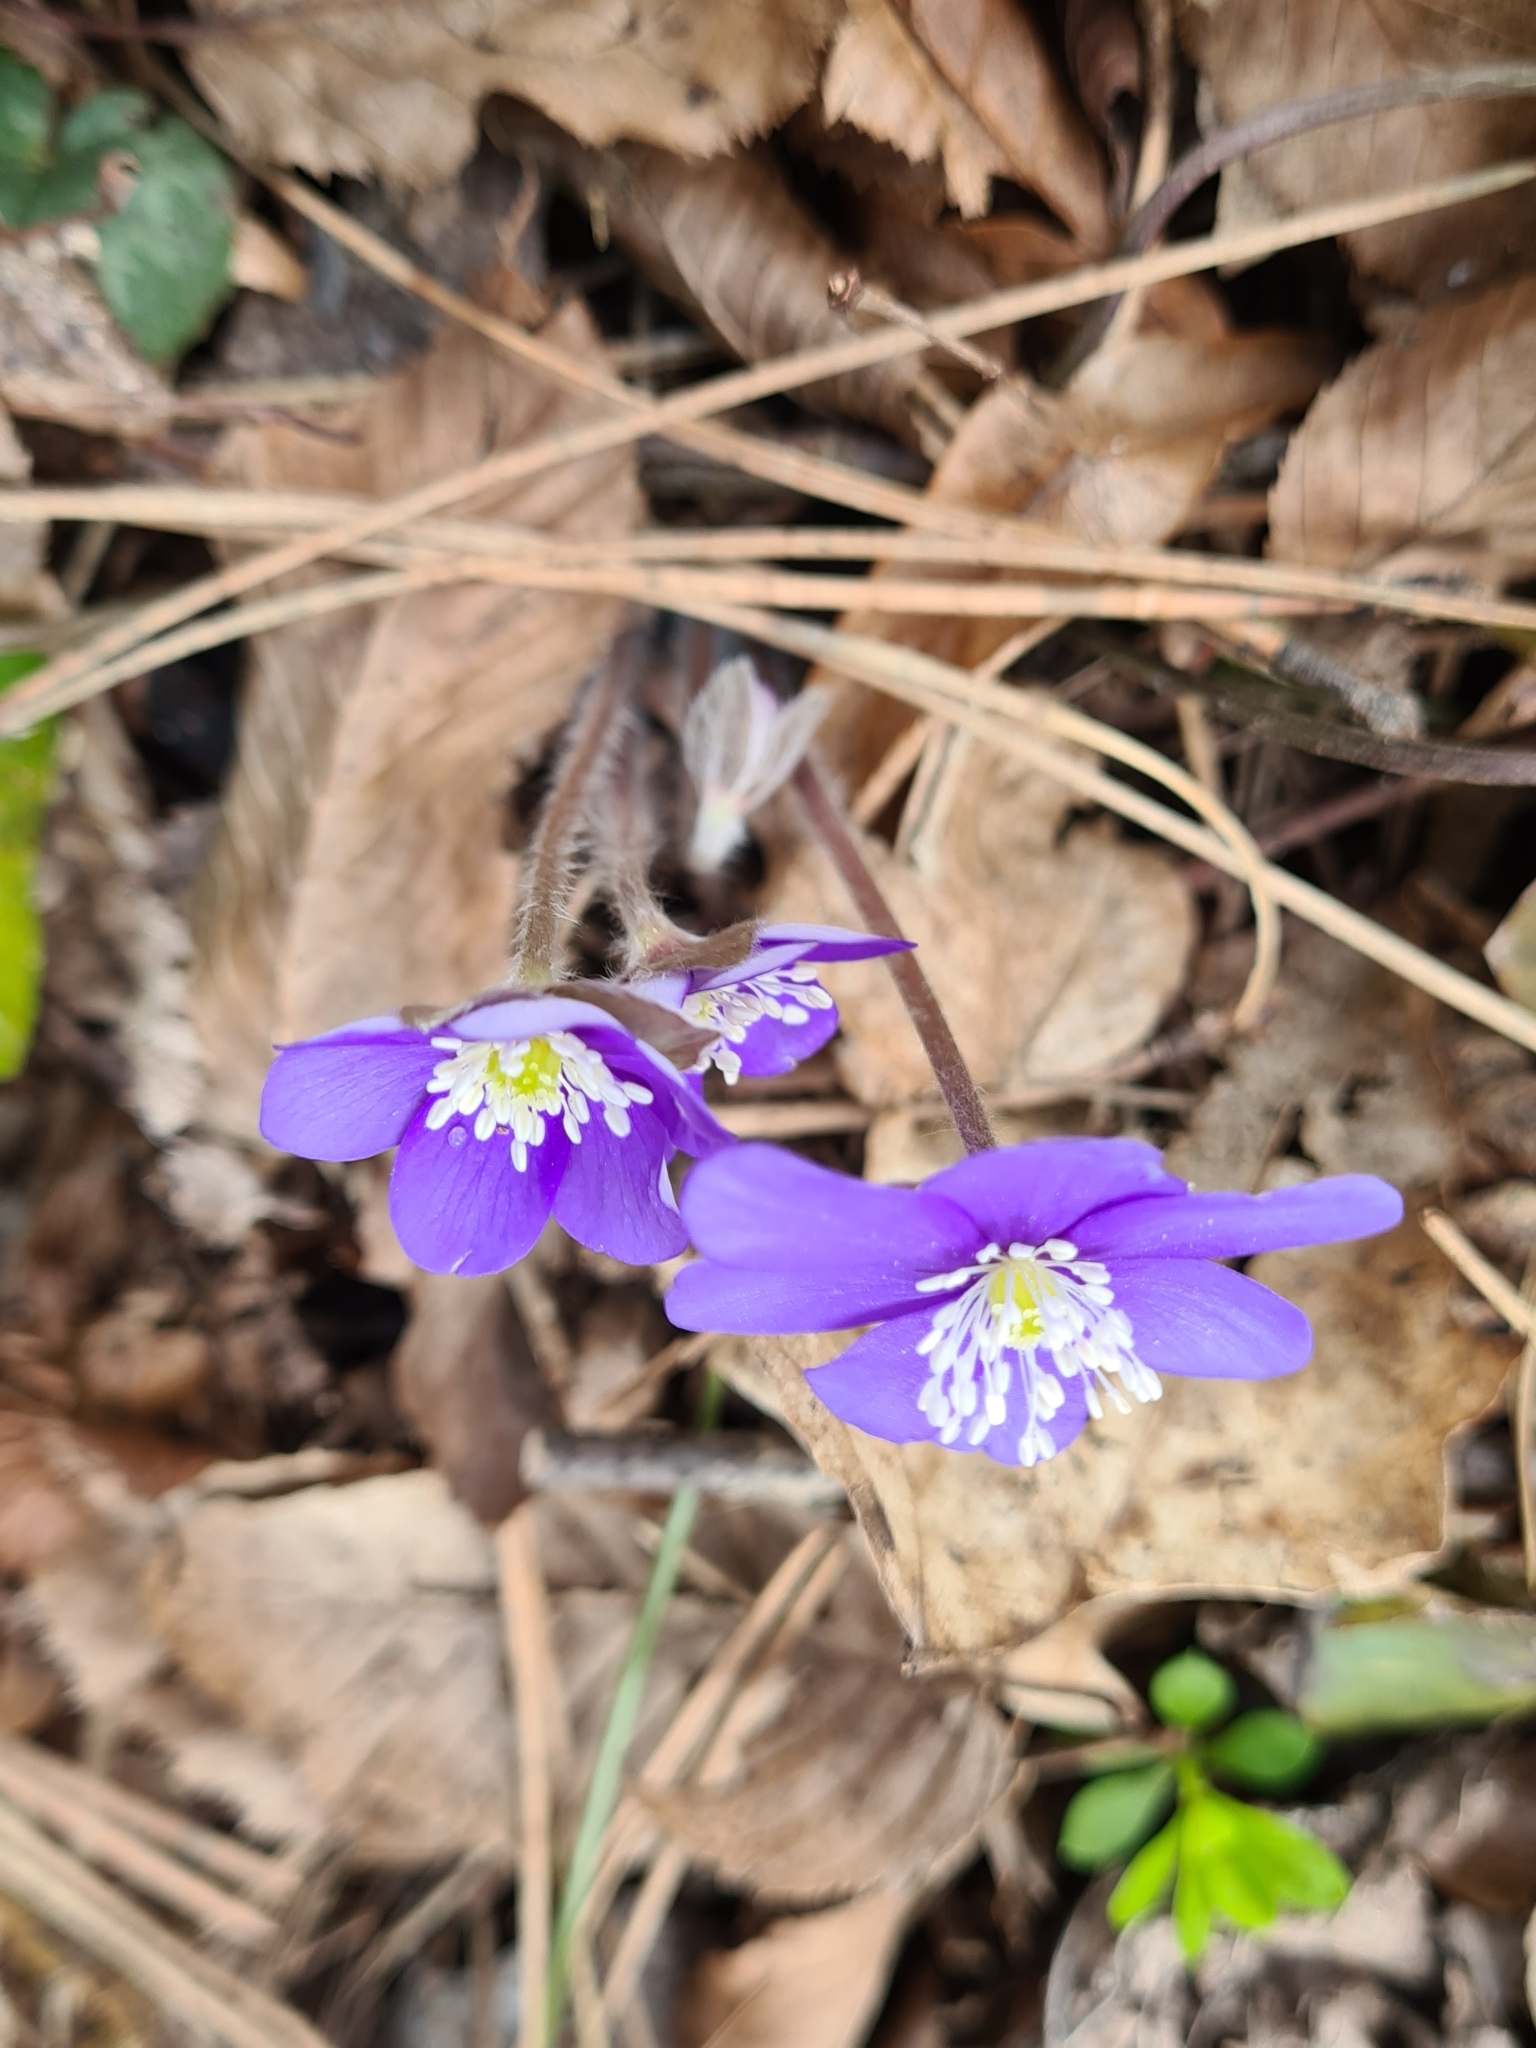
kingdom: Plantae
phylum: Tracheophyta
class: Magnoliopsida
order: Ranunculales
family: Ranunculaceae
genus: Hepatica
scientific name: Hepatica nobilis
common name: Liverleaf
